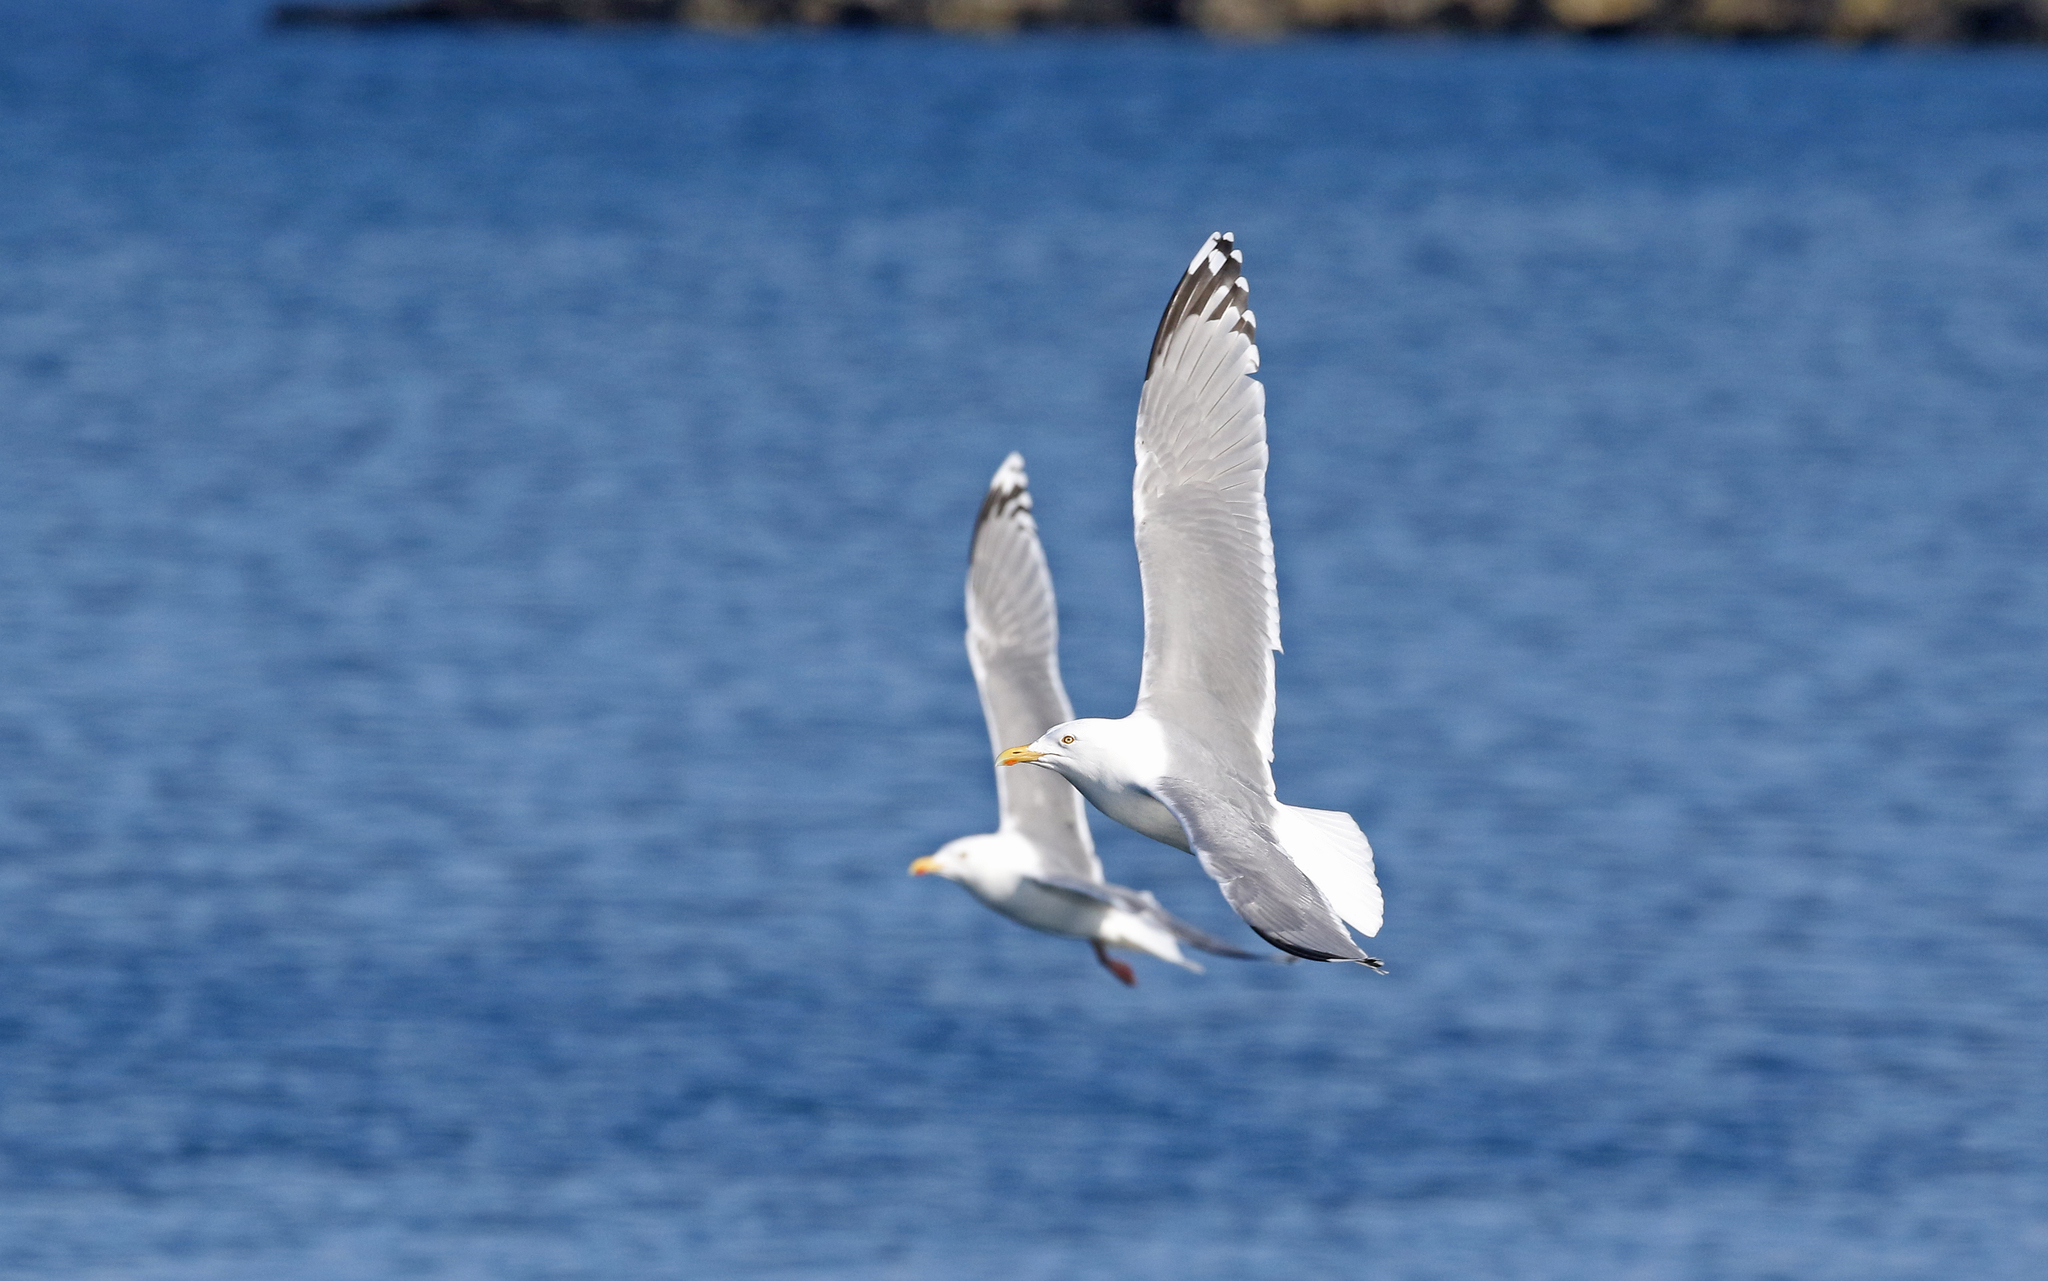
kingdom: Animalia
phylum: Chordata
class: Aves
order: Charadriiformes
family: Laridae
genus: Larus
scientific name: Larus argentatus
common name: Herring gull
